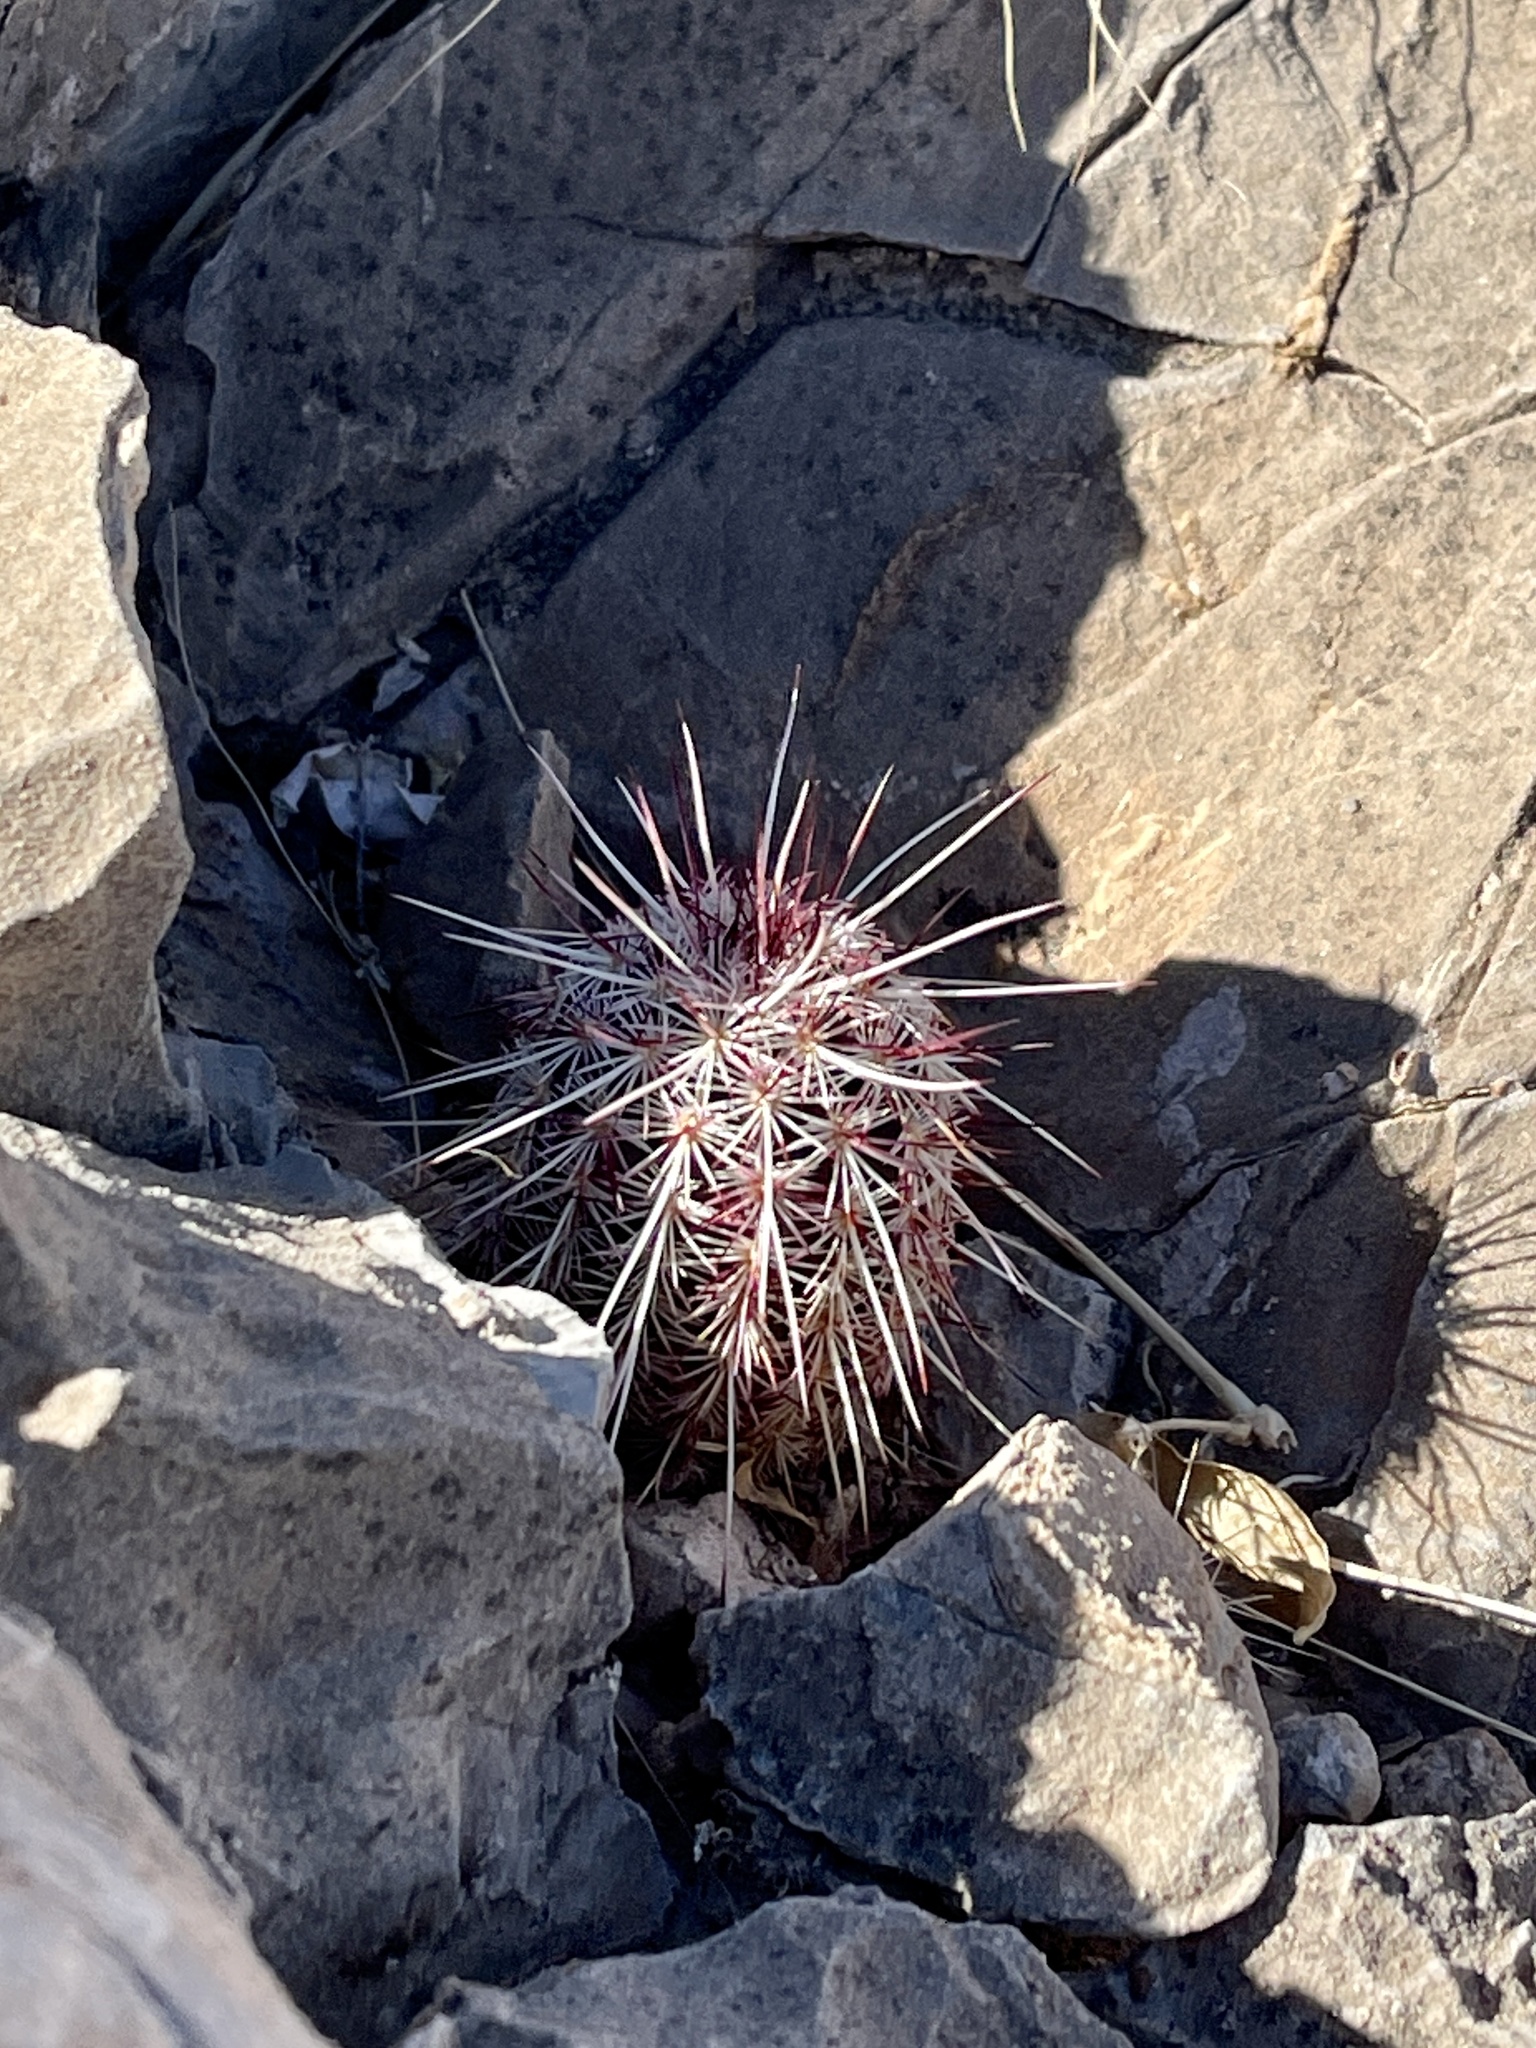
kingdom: Plantae
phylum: Tracheophyta
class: Magnoliopsida
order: Caryophyllales
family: Cactaceae
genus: Echinocereus
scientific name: Echinocereus viridiflorus
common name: Nylon hedgehog cactus
